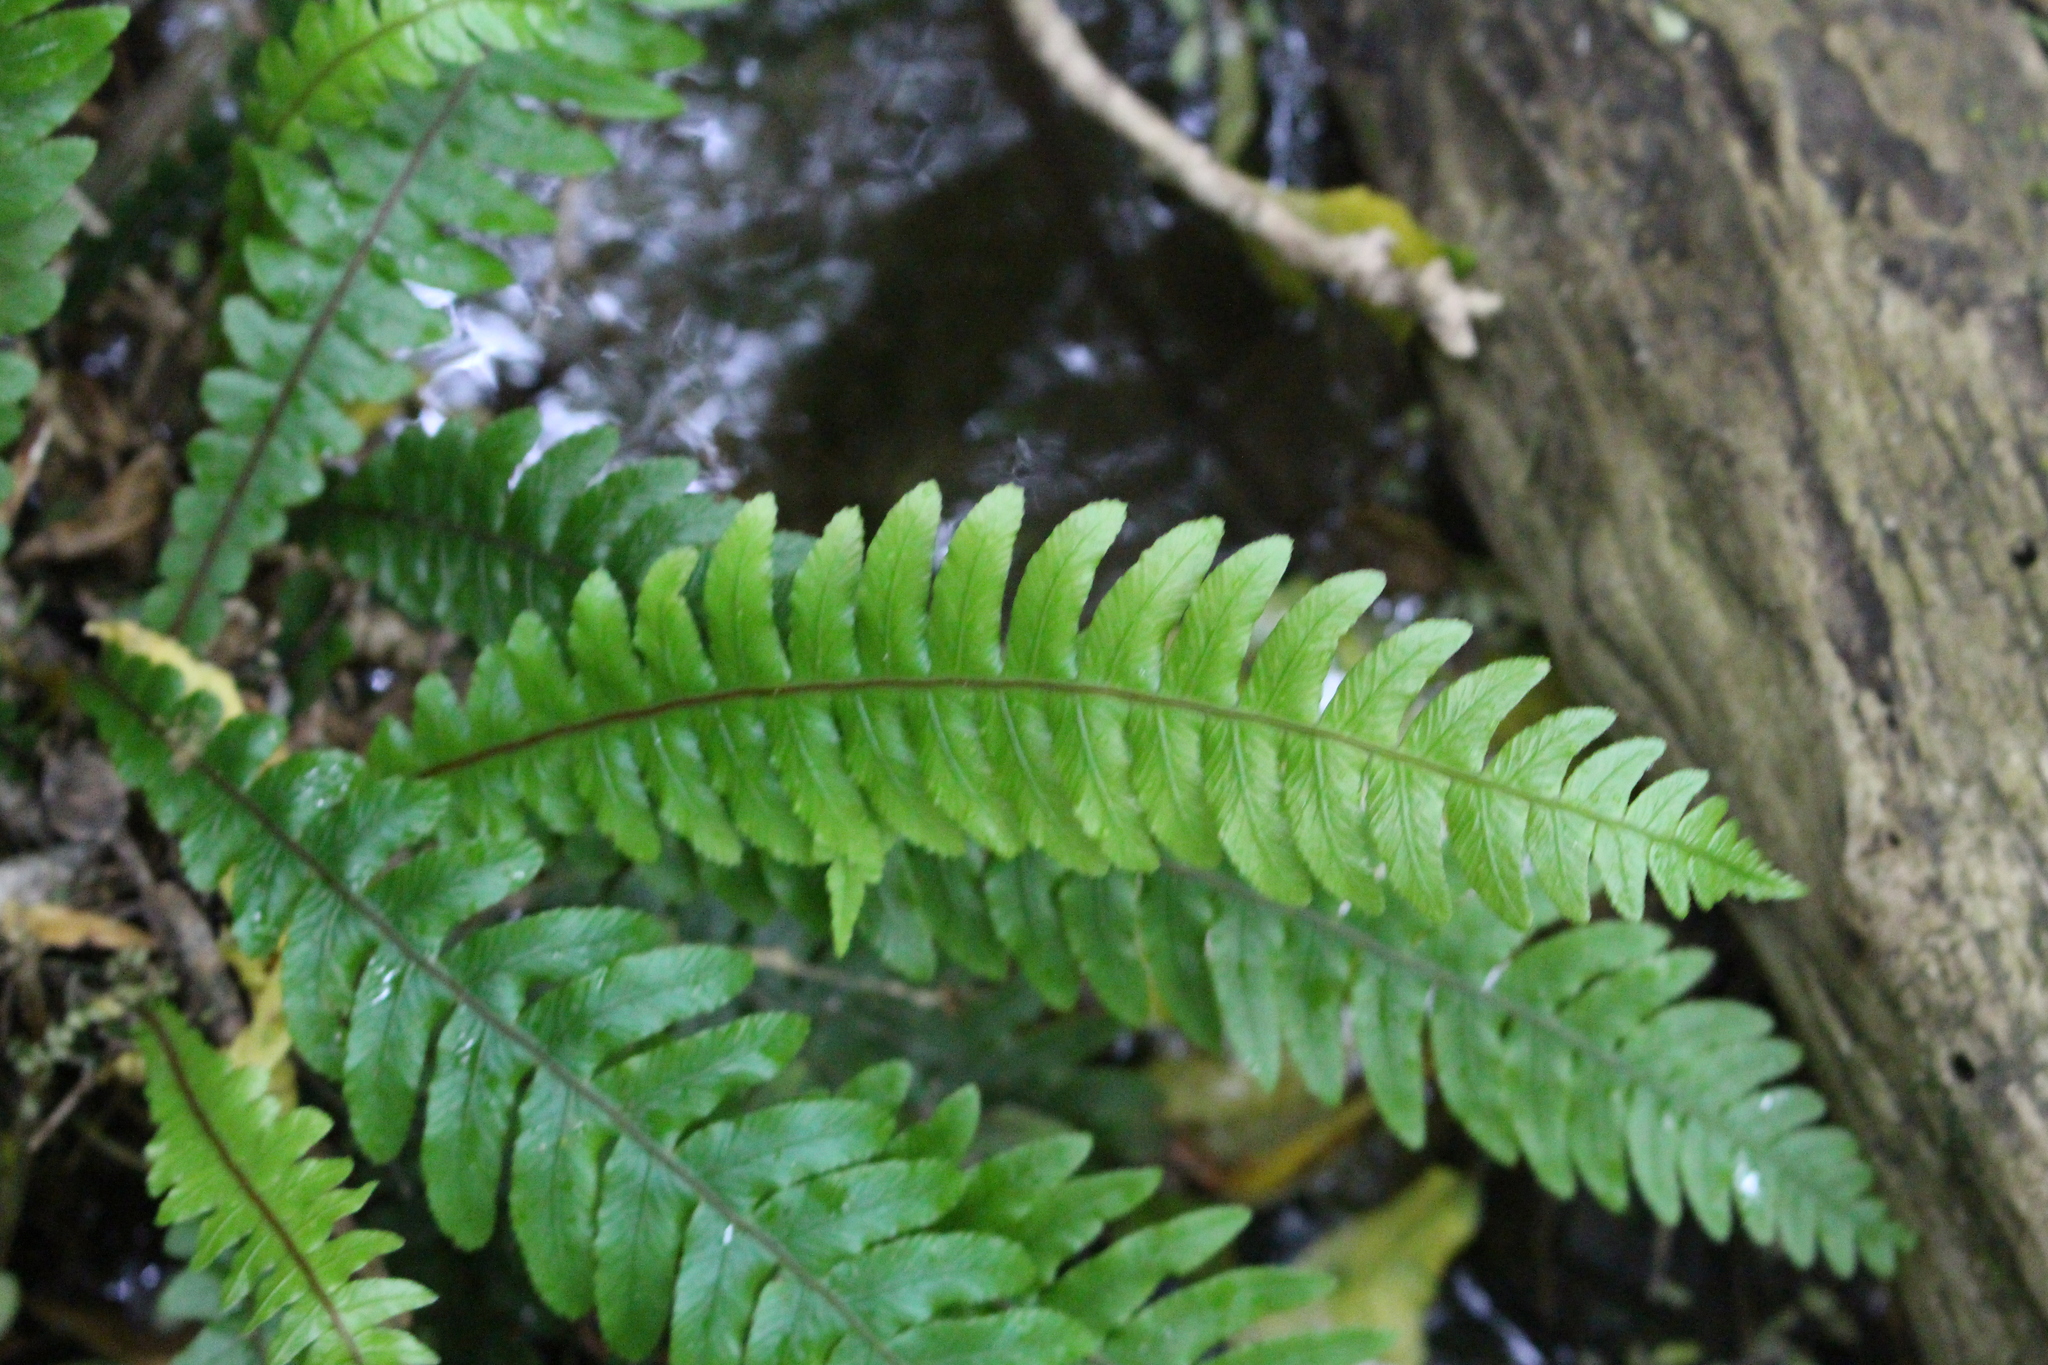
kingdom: Plantae
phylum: Tracheophyta
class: Polypodiopsida
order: Polypodiales
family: Blechnaceae
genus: Austroblechnum
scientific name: Austroblechnum lanceolatum
